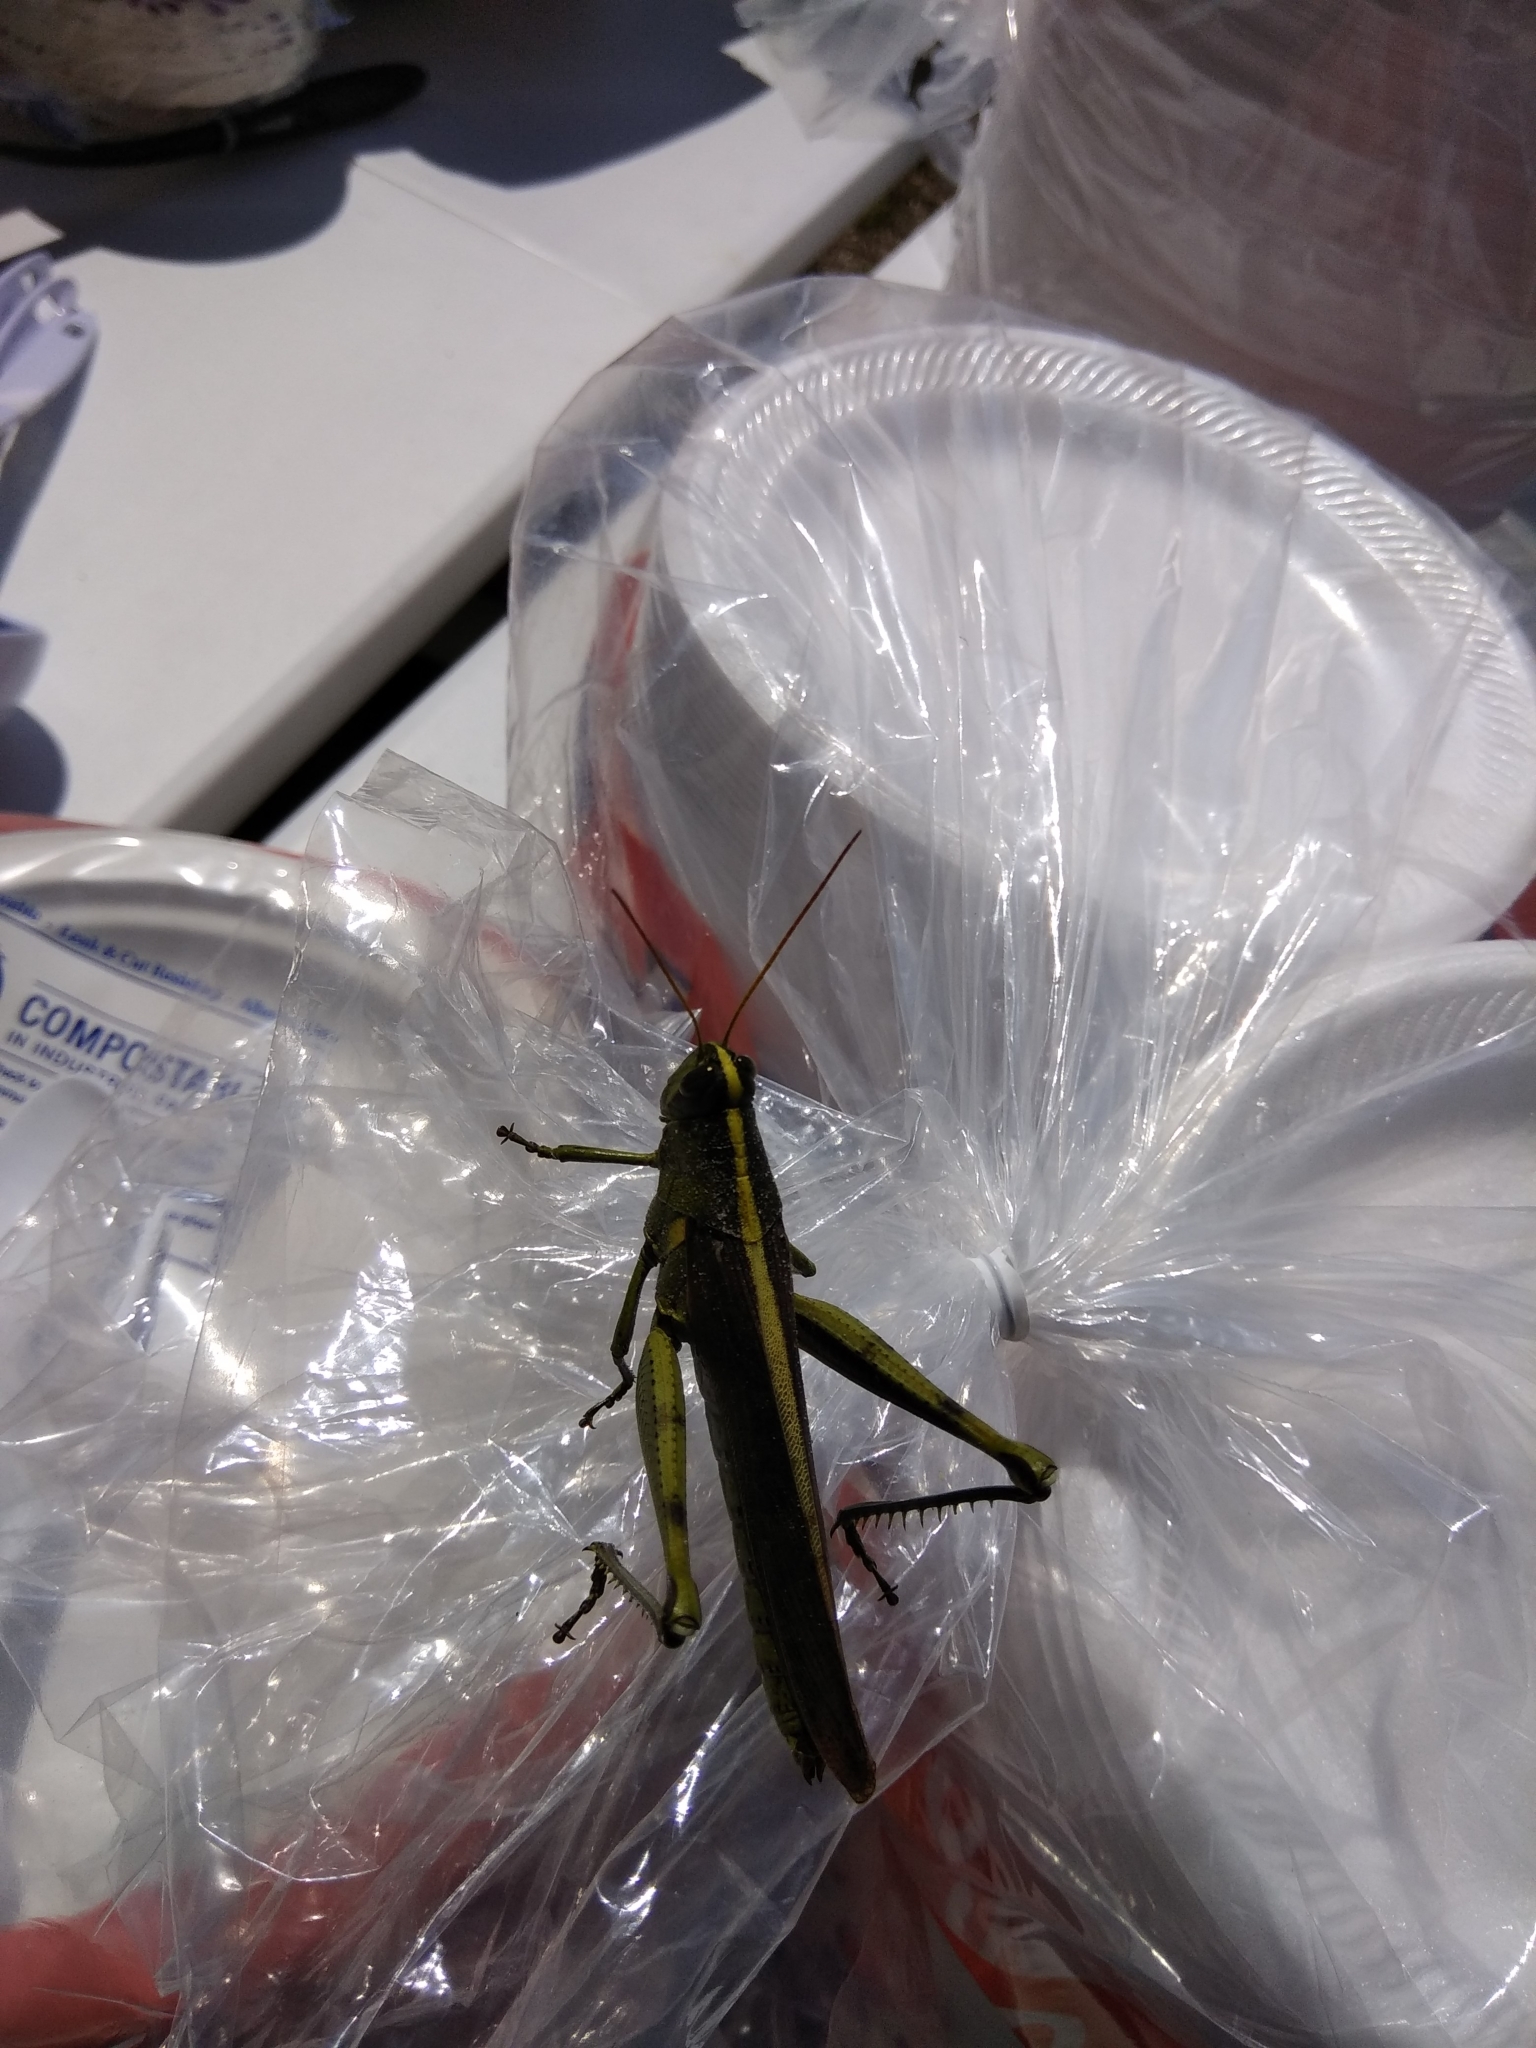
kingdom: Animalia
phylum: Arthropoda
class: Insecta
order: Orthoptera
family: Acrididae
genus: Schistocerca
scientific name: Schistocerca obscura
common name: Obscure bird grasshopper
